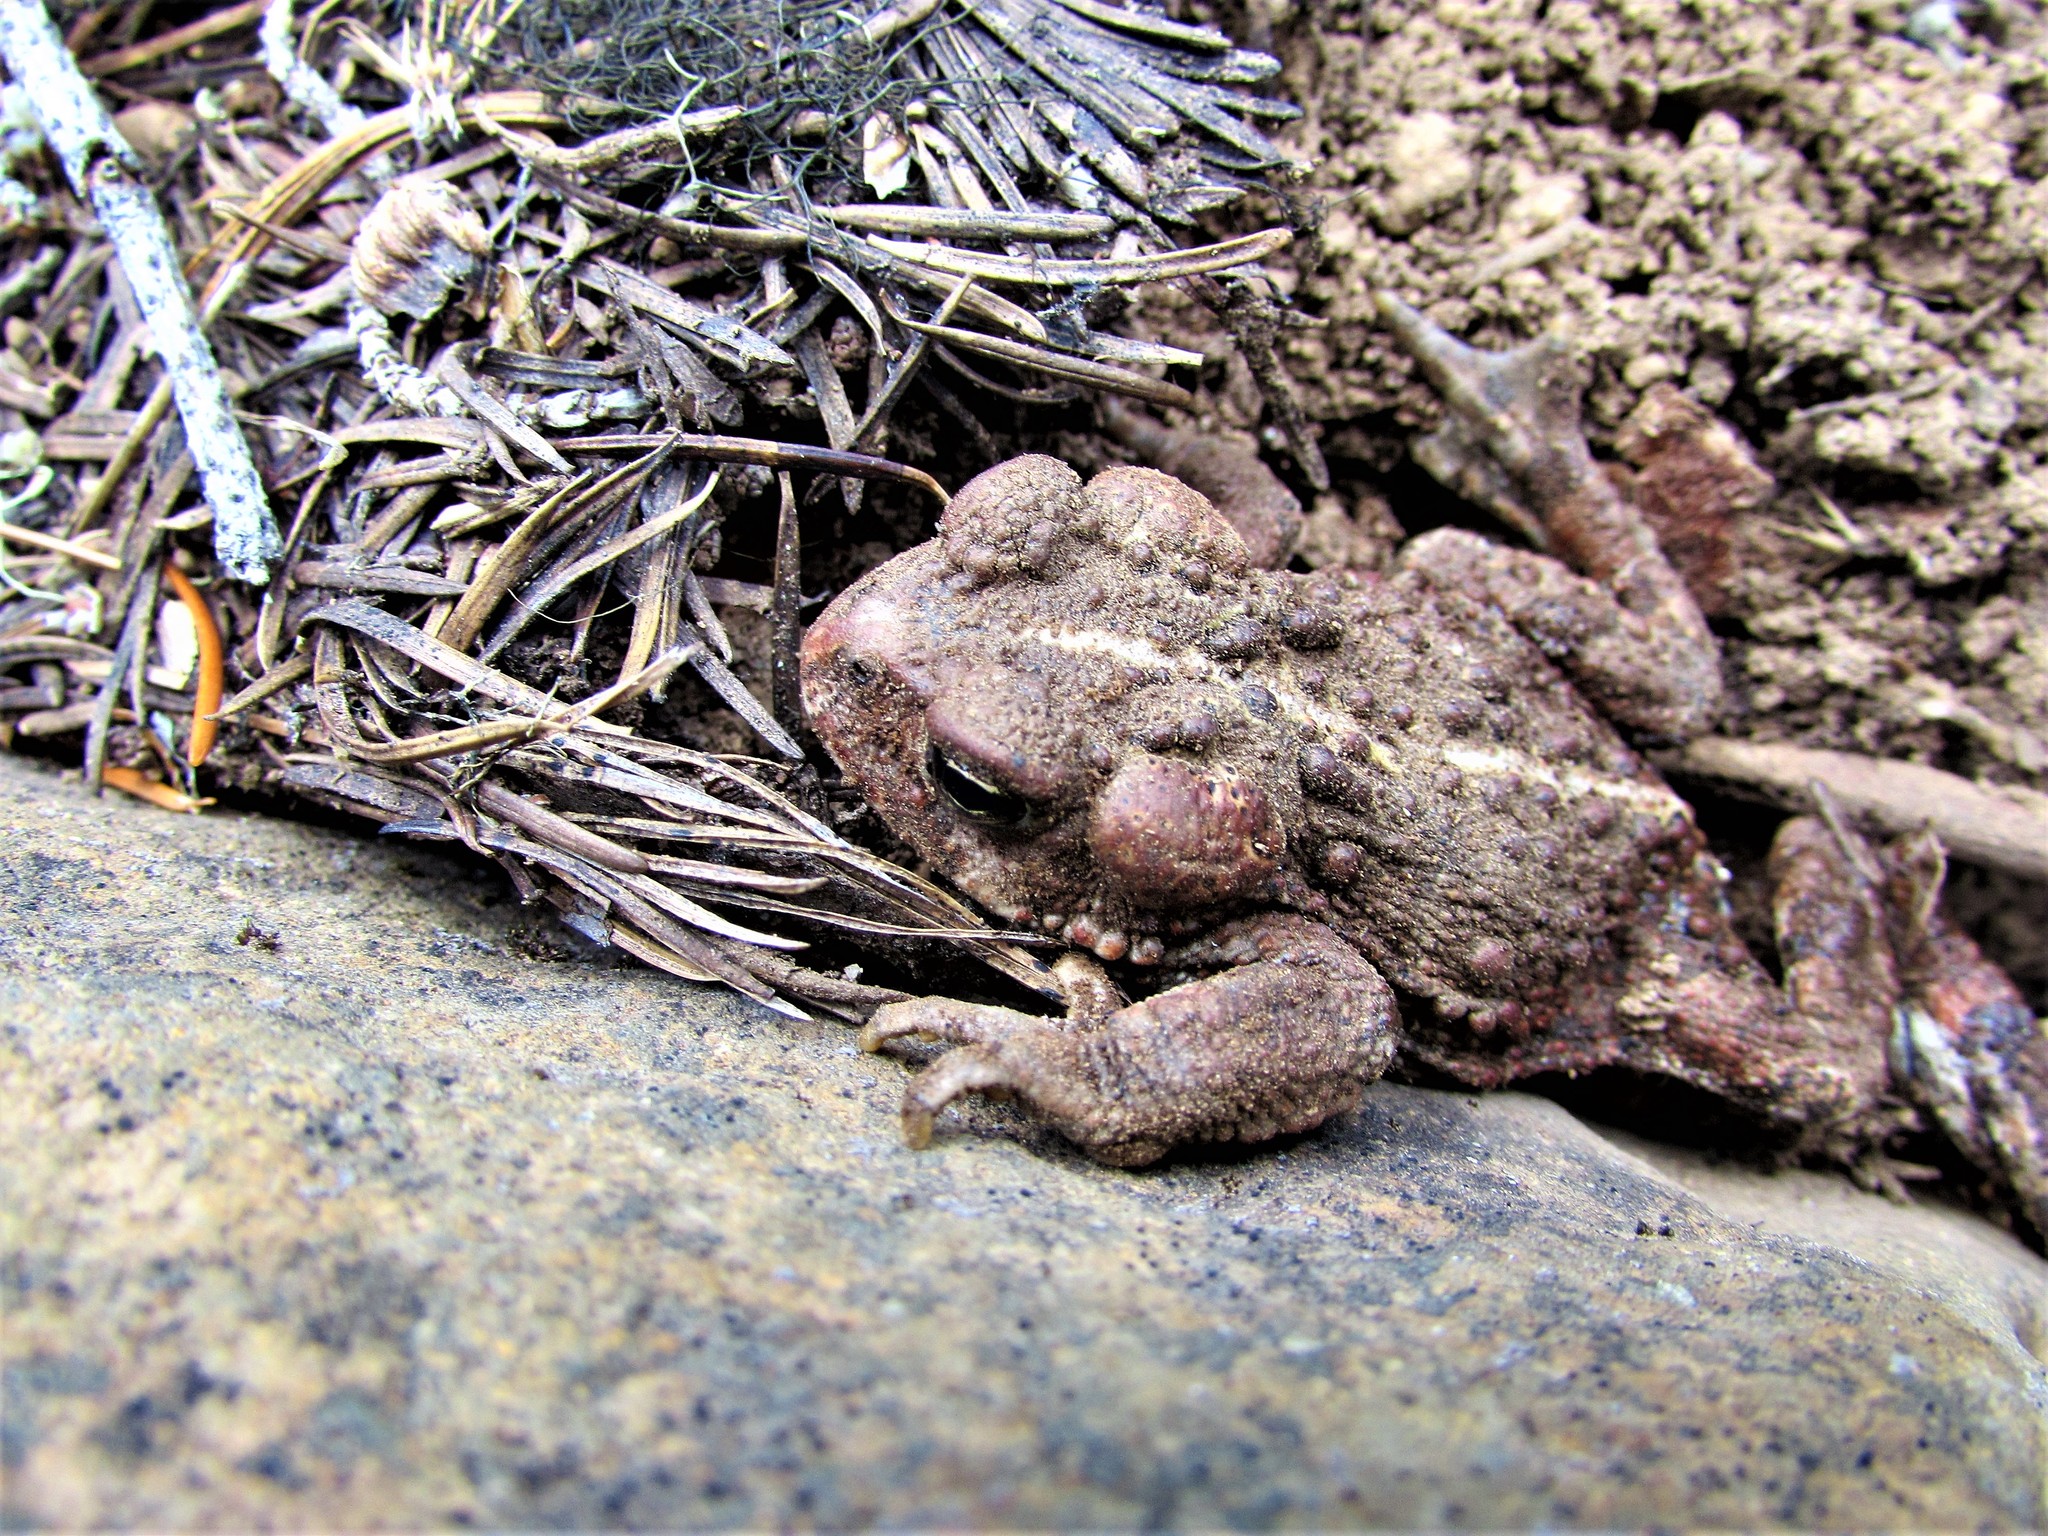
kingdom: Animalia
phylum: Chordata
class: Amphibia
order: Anura
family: Bufonidae
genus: Anaxyrus
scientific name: Anaxyrus boreas
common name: Western toad
